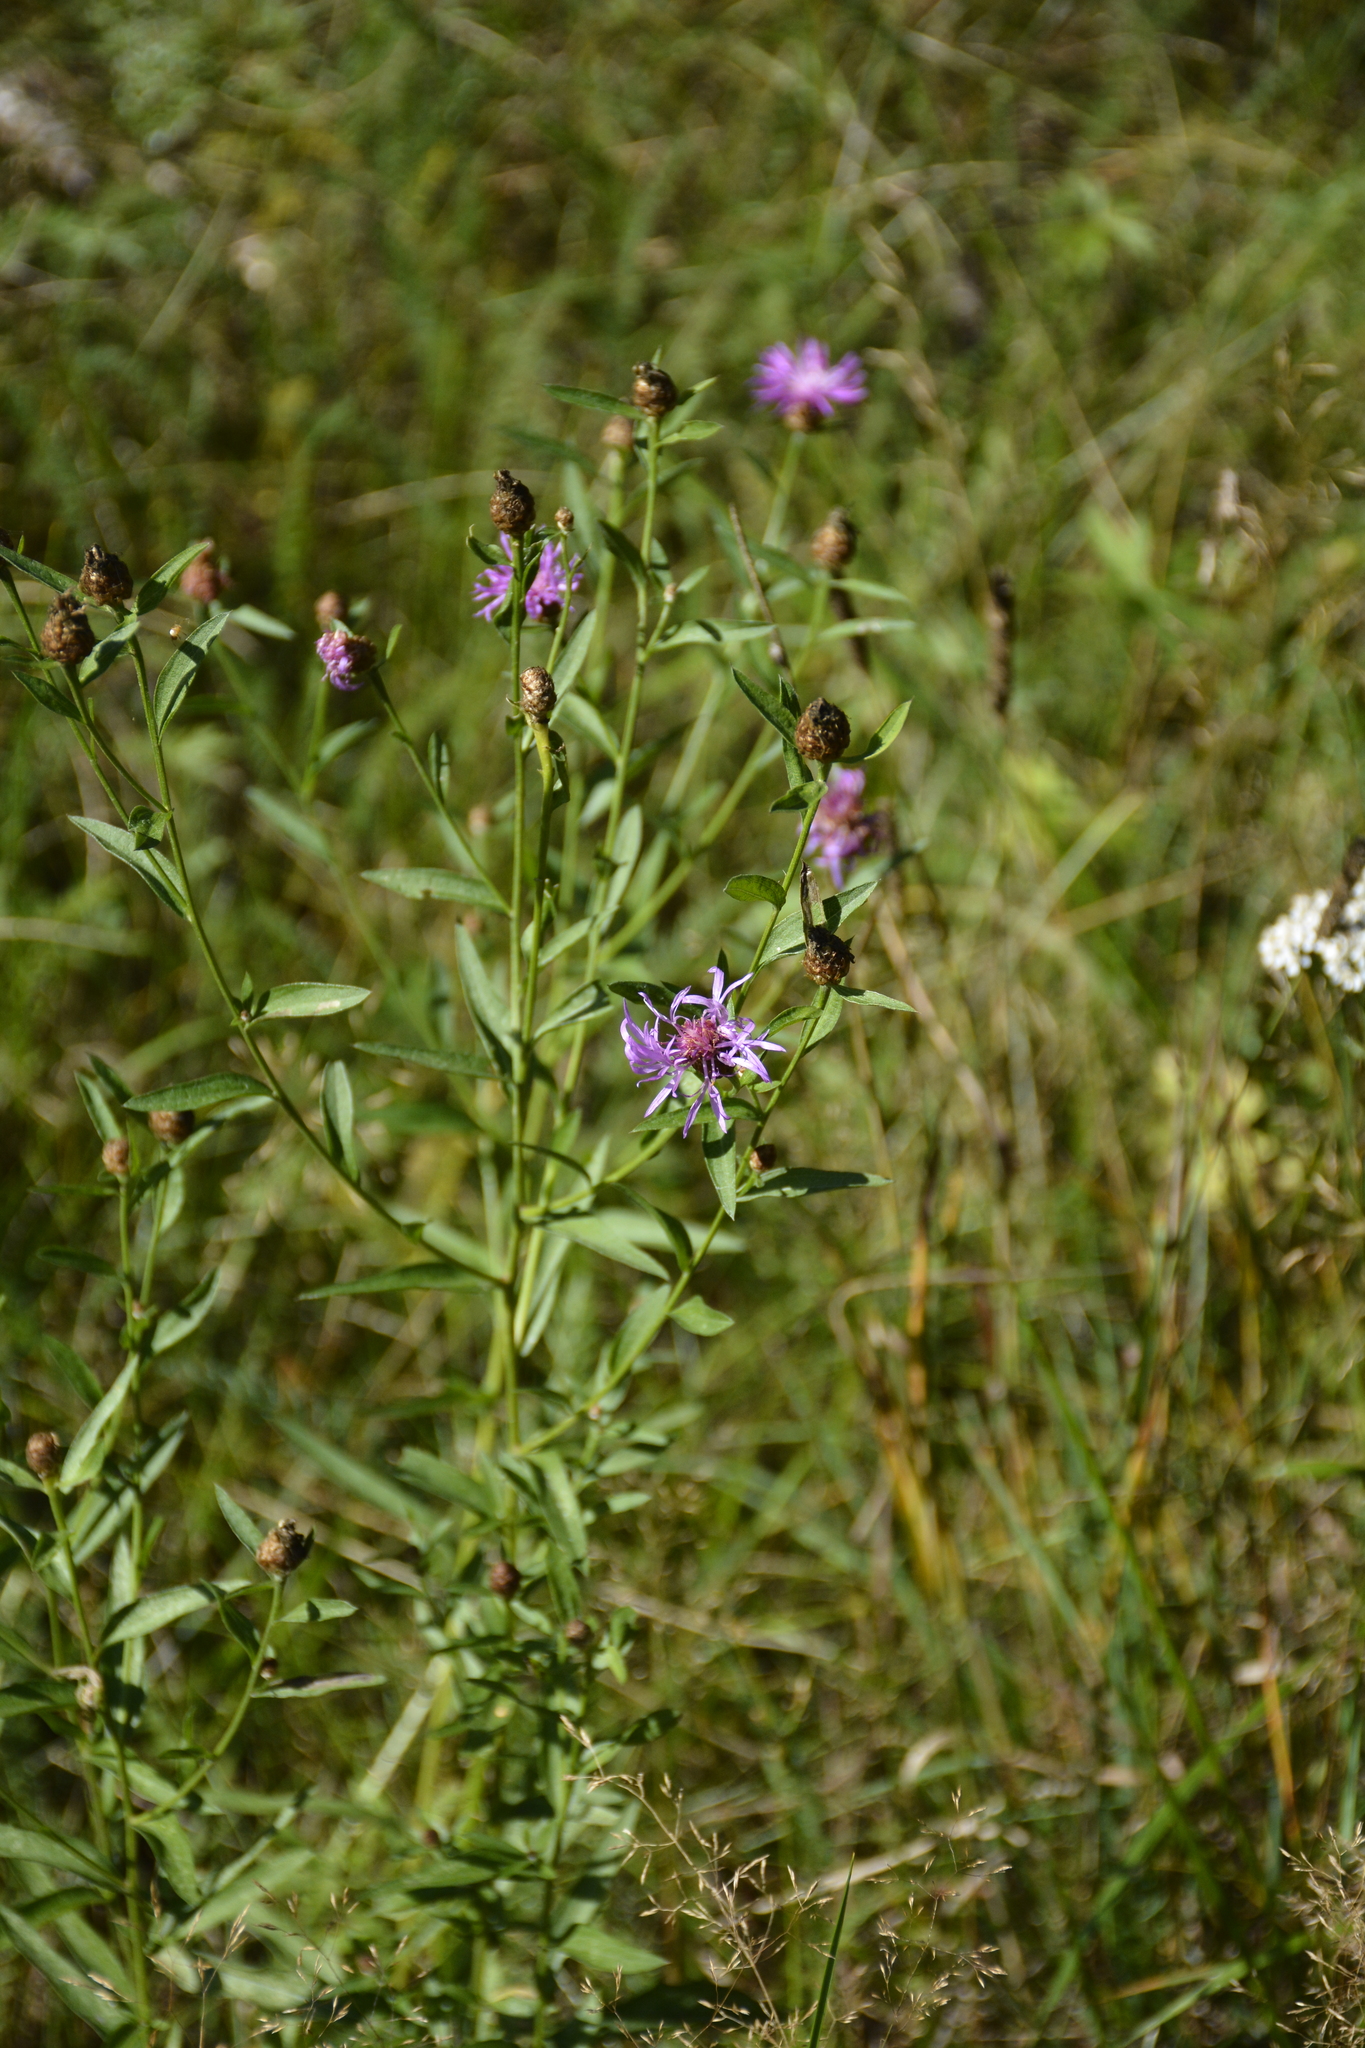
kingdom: Plantae
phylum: Tracheophyta
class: Magnoliopsida
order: Asterales
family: Asteraceae
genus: Centaurea
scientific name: Centaurea jacea
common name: Brown knapweed
